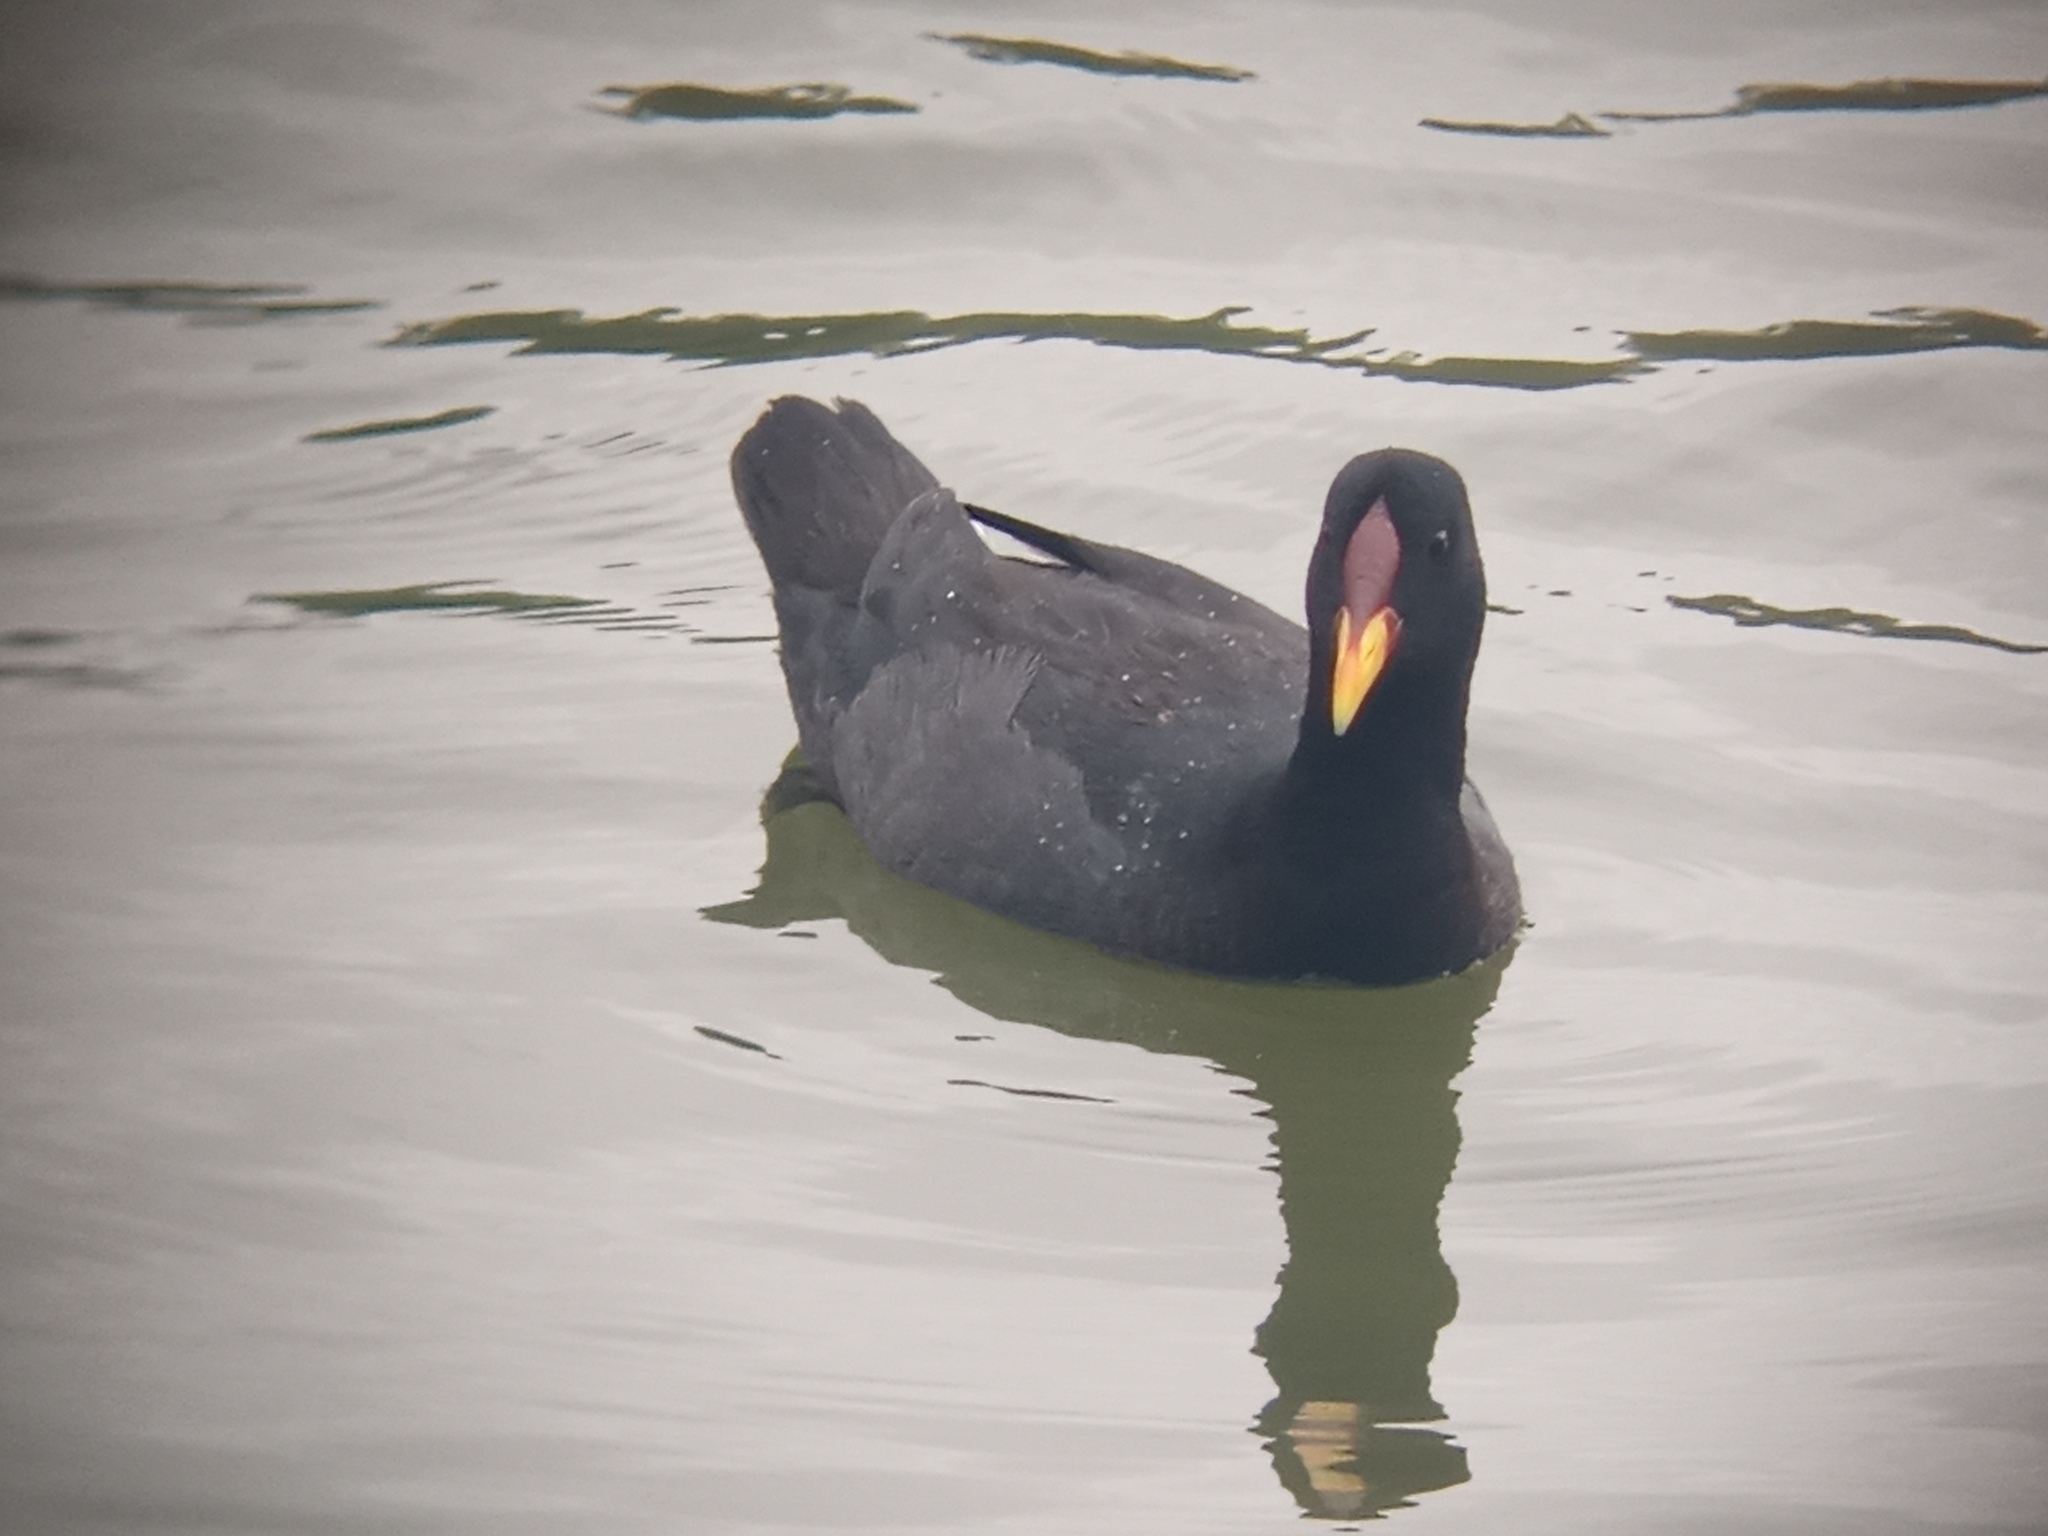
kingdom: Animalia
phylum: Chordata
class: Aves
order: Gruiformes
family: Rallidae
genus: Fulica
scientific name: Fulica rufifrons
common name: Red-fronted coot
